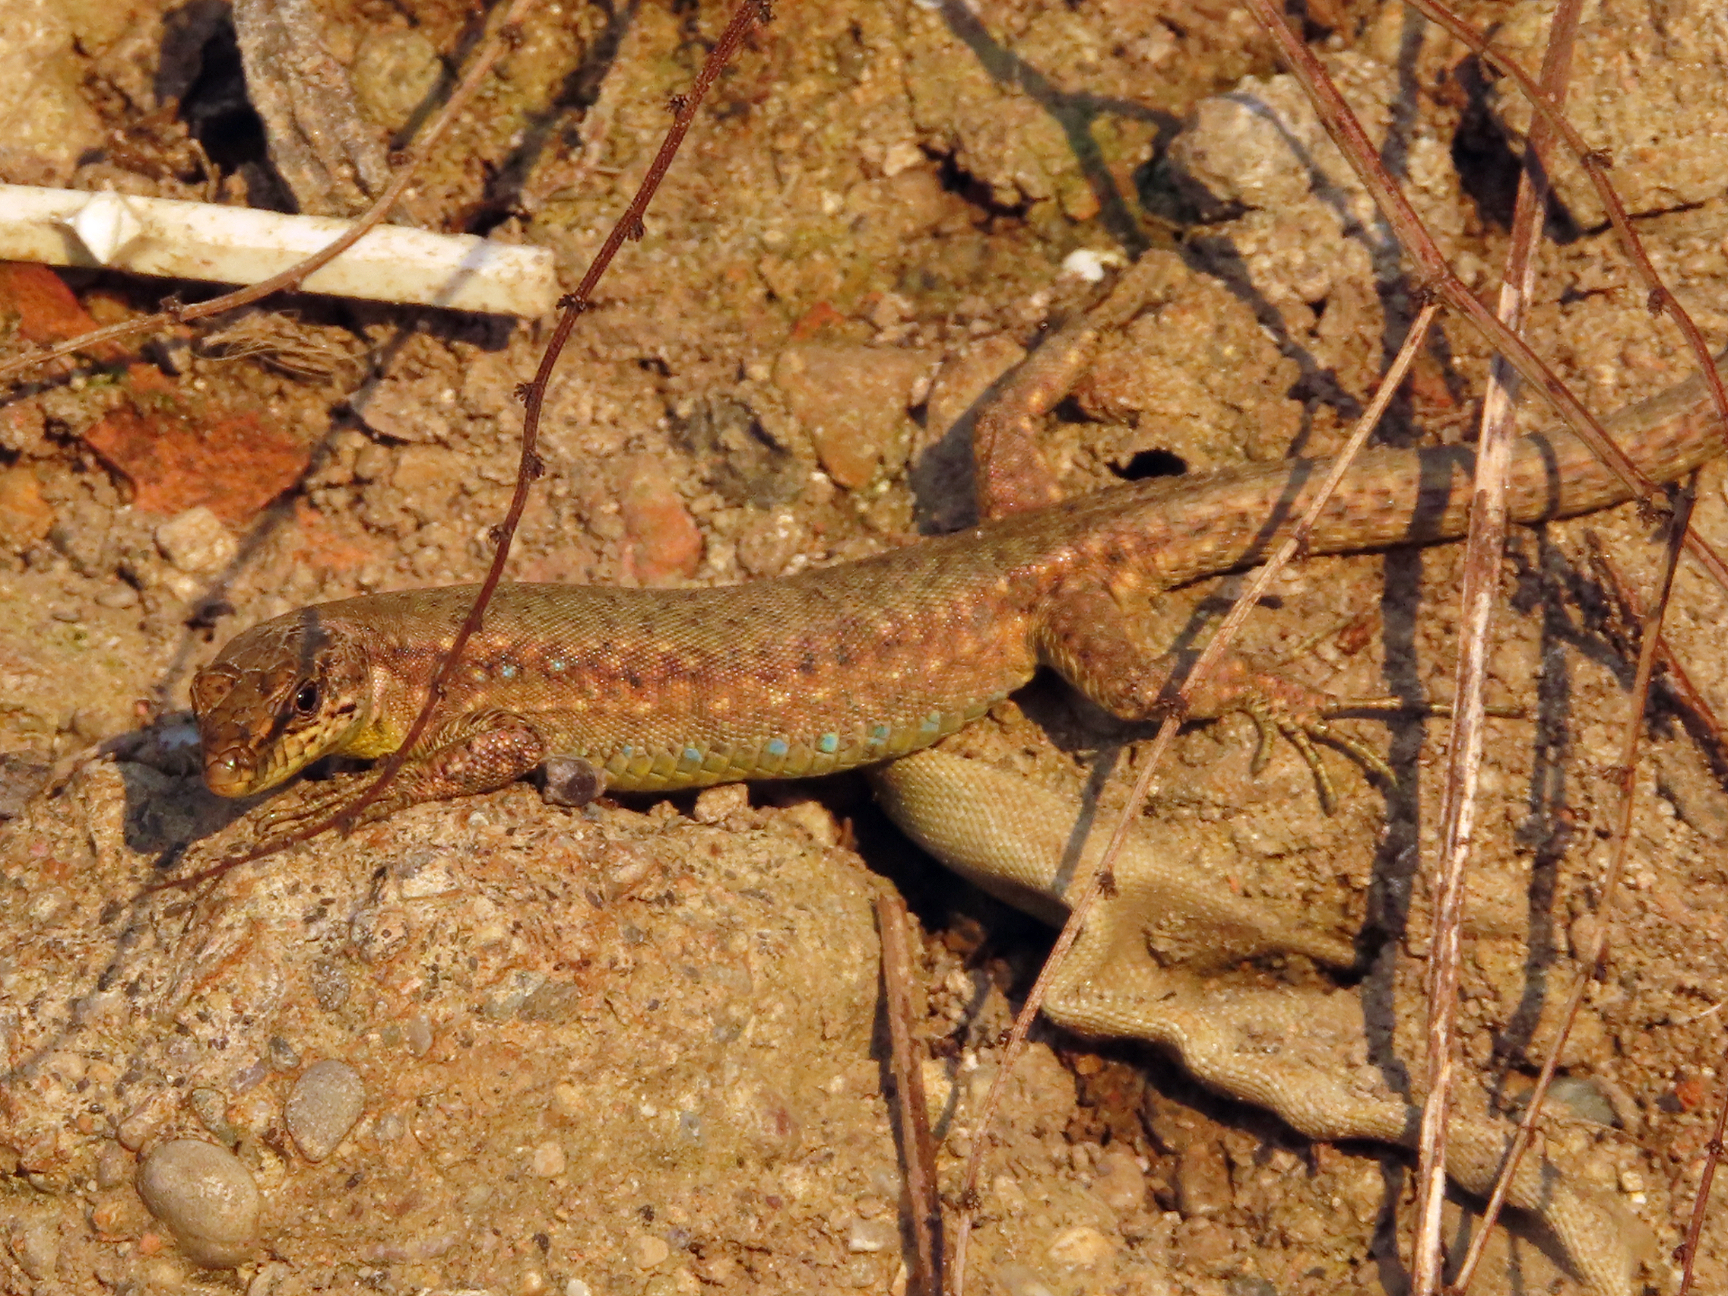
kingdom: Animalia
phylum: Chordata
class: Squamata
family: Lacertidae
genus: Darevskia
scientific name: Darevskia bithynica
